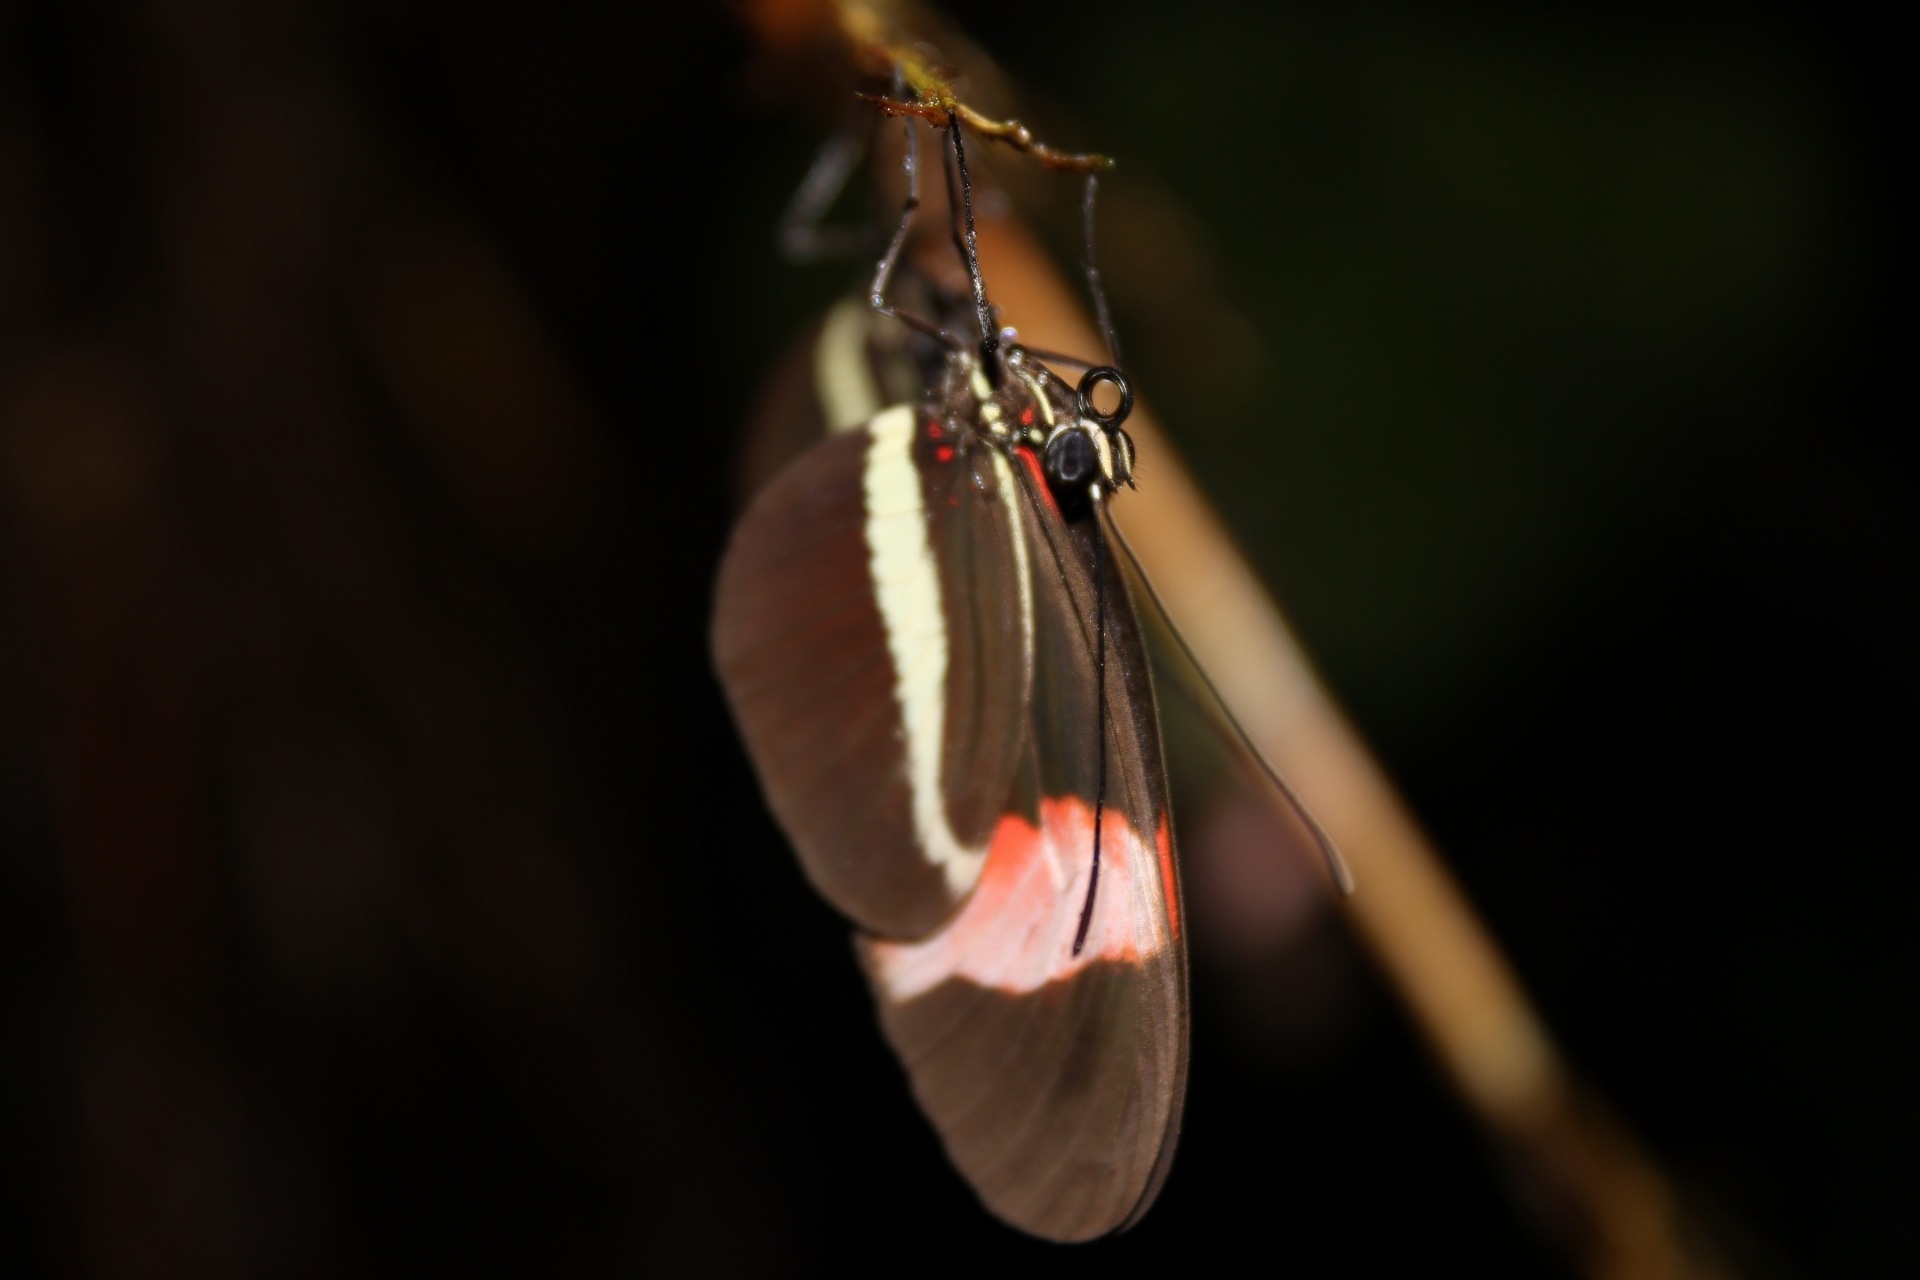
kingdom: Animalia
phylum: Arthropoda
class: Insecta
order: Lepidoptera
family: Nymphalidae
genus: Tirumala
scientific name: Tirumala petiverana
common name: Blue monarch
